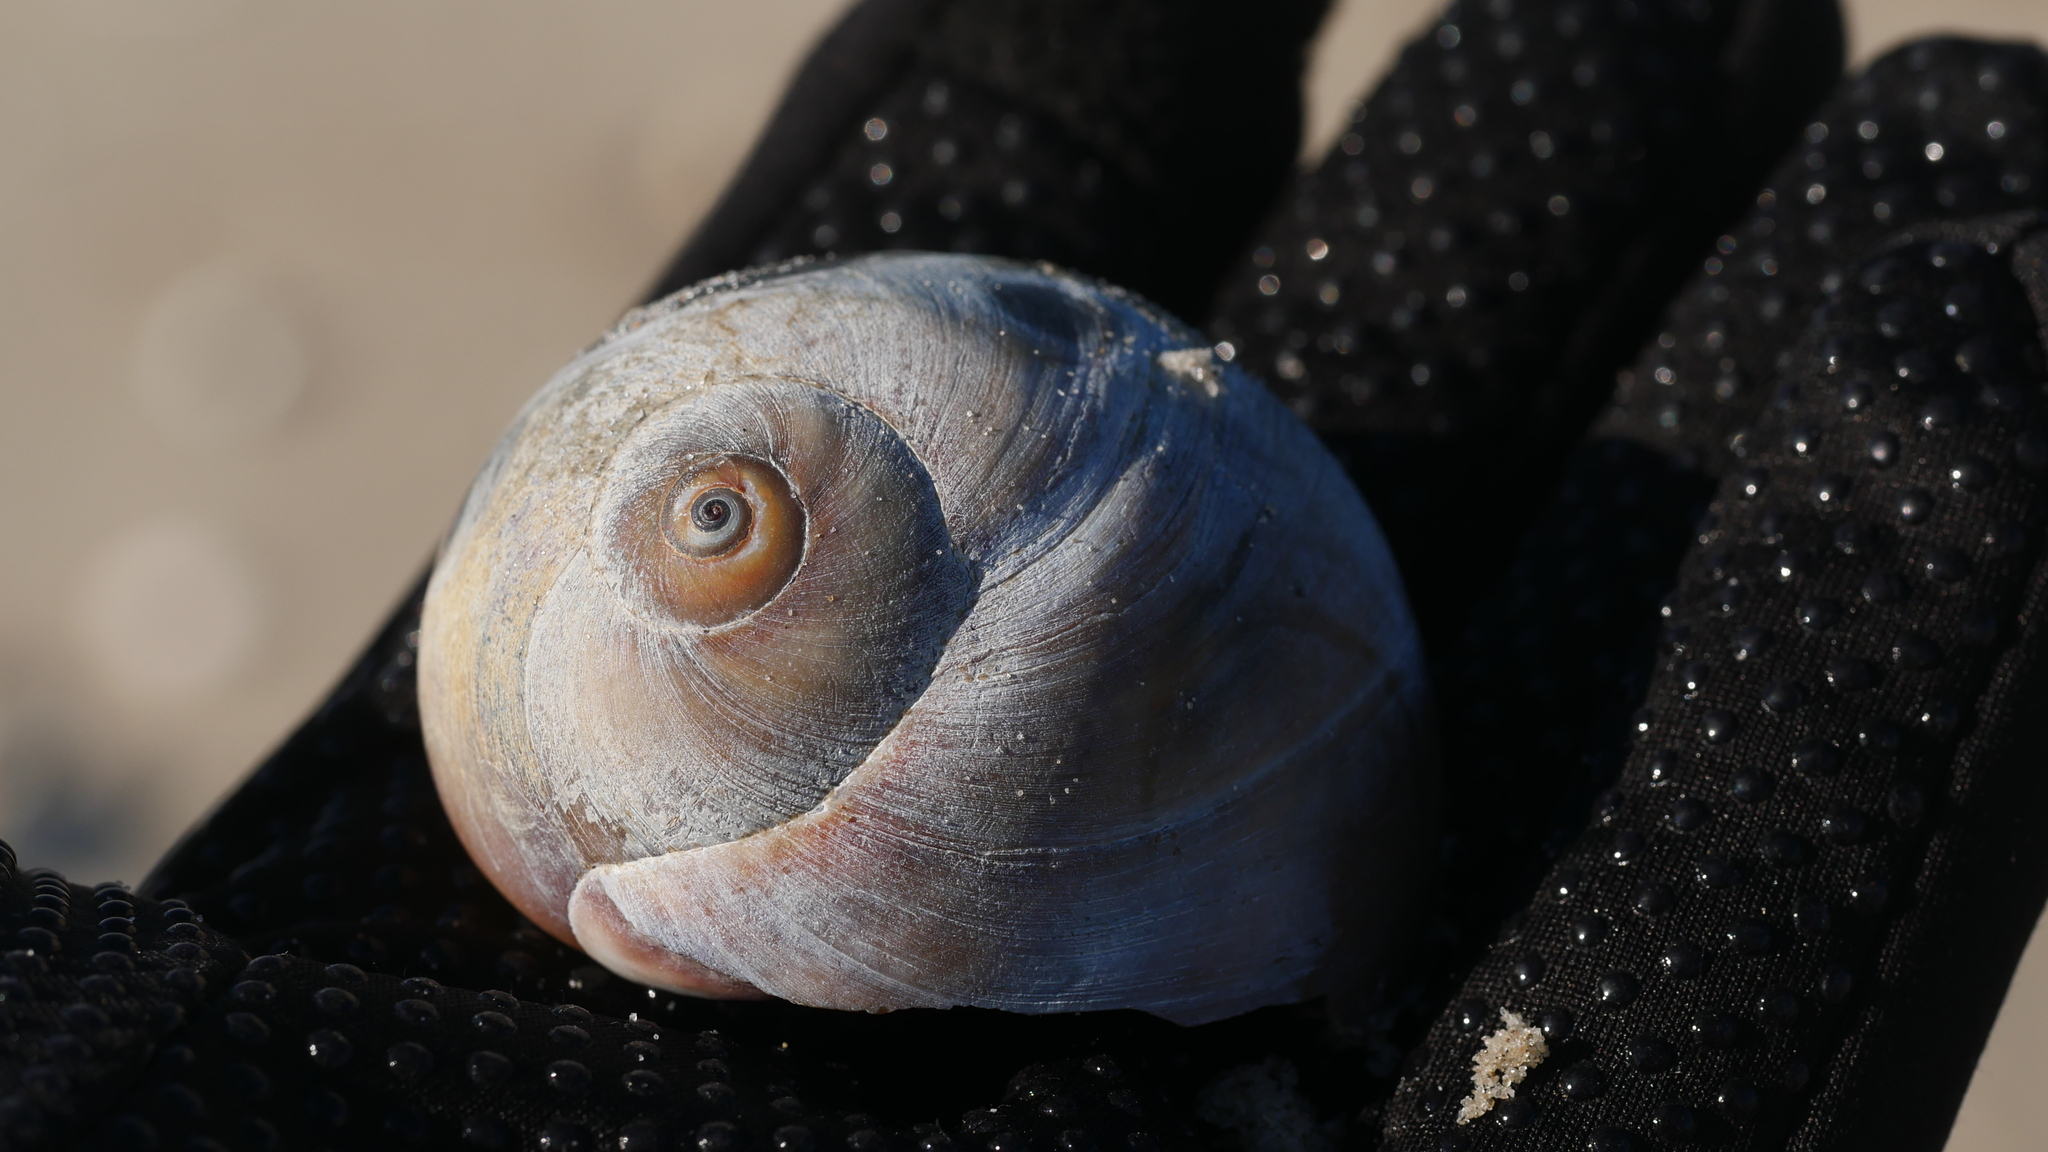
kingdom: Animalia
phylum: Mollusca
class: Gastropoda
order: Littorinimorpha
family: Naticidae
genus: Neverita
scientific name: Neverita duplicata
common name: Lobed moonsnail
